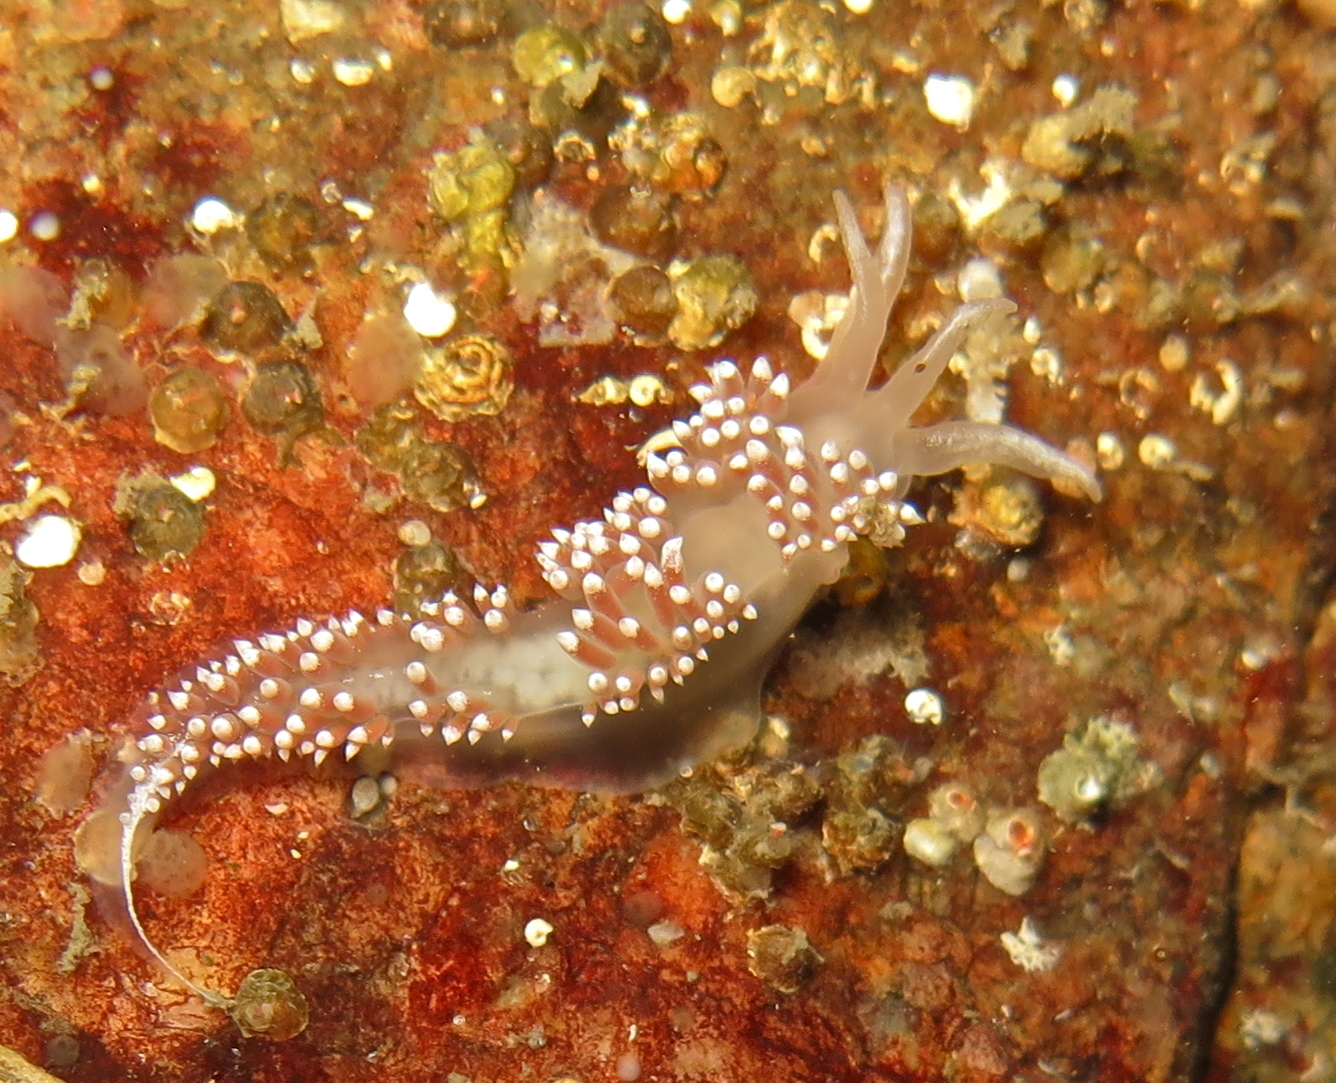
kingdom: Animalia
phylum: Mollusca
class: Gastropoda
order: Nudibranchia
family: Coryphellidae
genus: Coryphella
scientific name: Coryphella verrucosa
